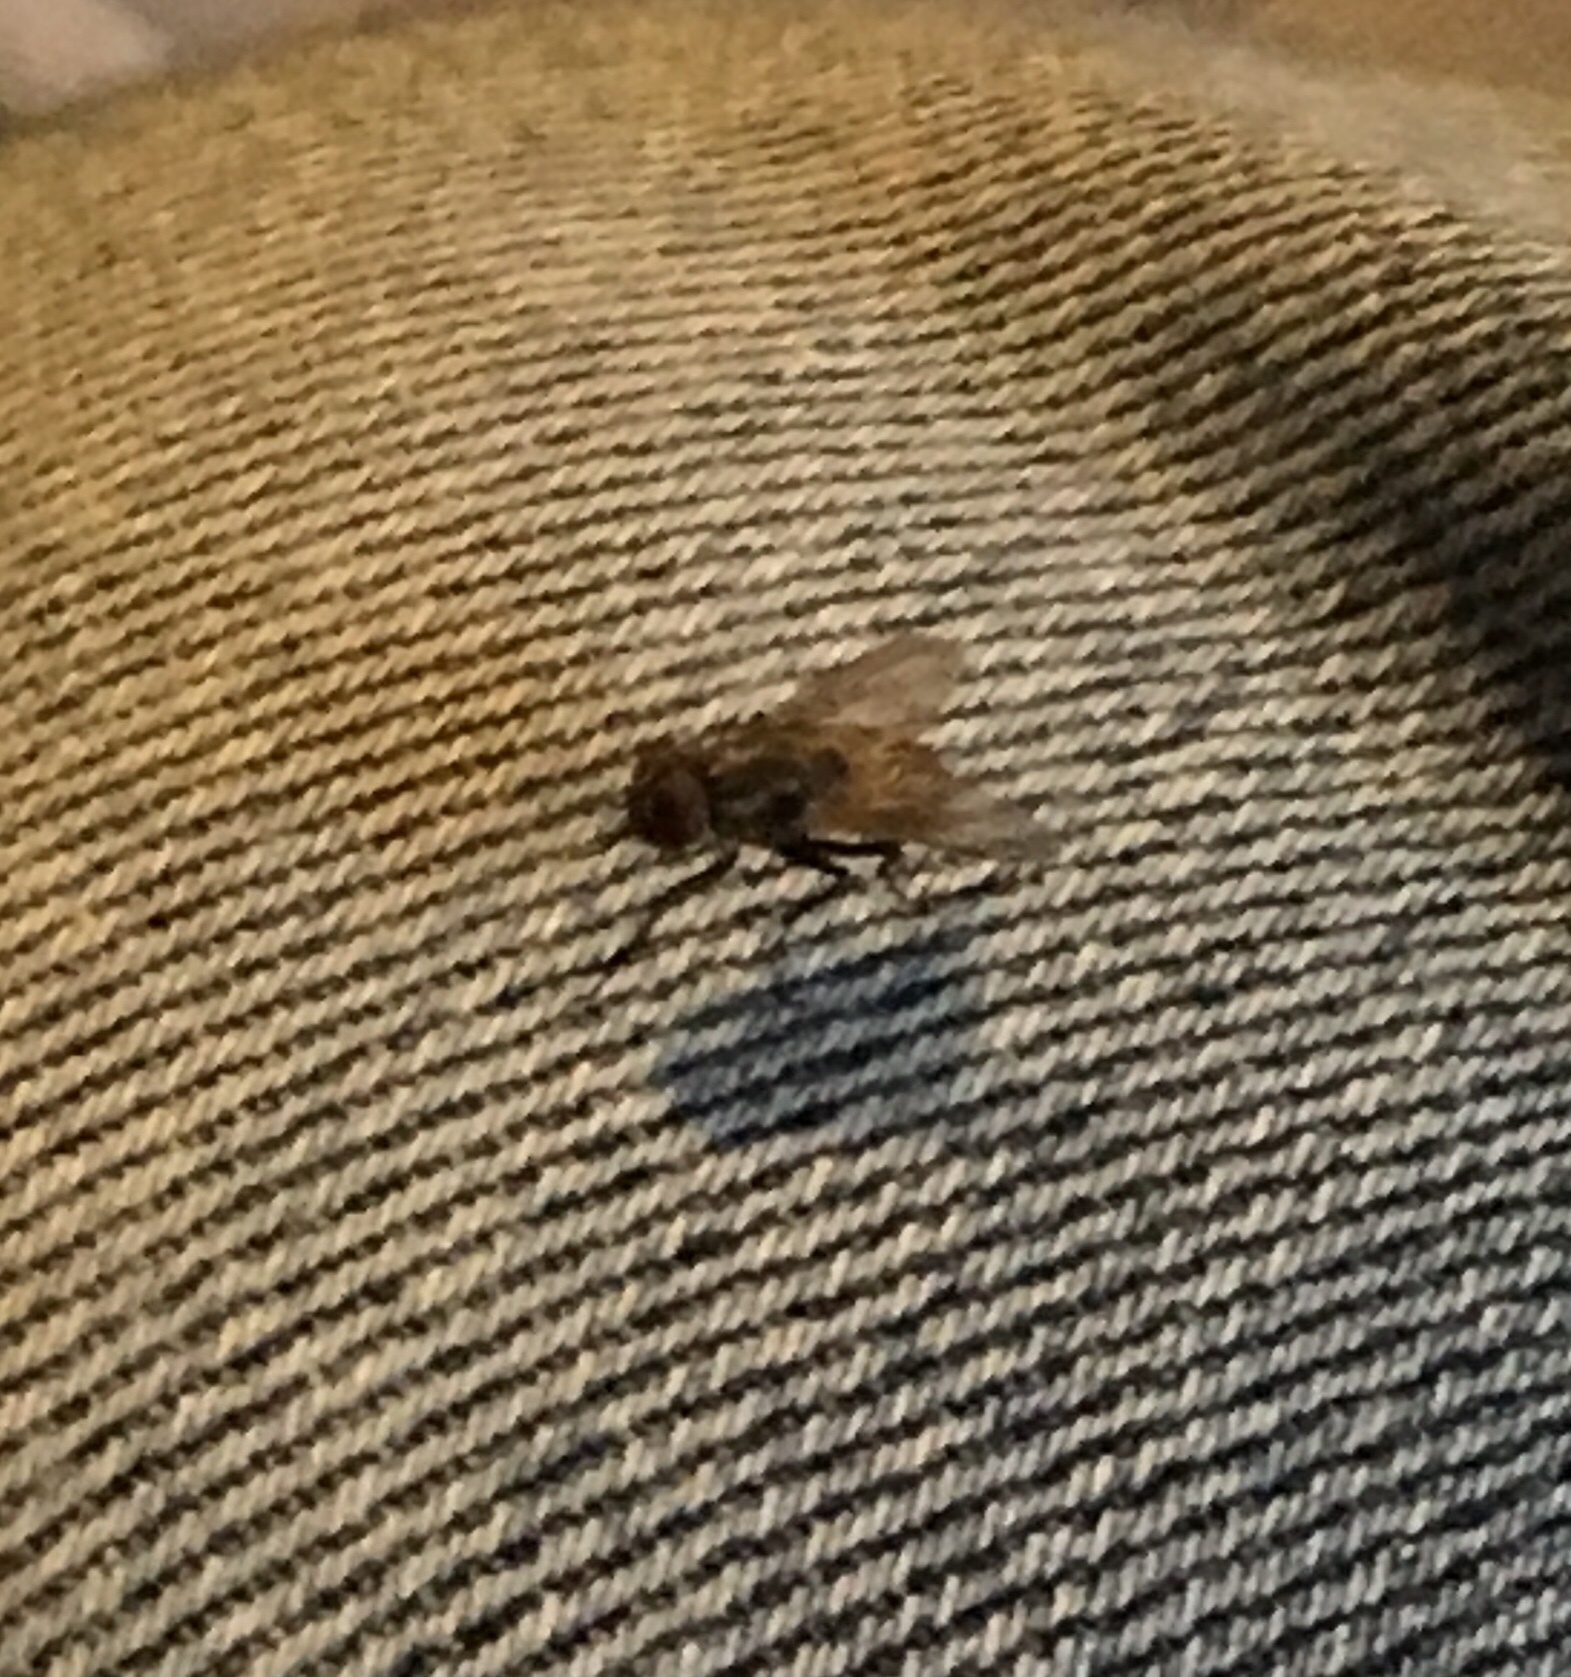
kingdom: Animalia
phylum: Arthropoda
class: Insecta
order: Diptera
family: Muscidae
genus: Musca
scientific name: Musca domestica
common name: House fly
